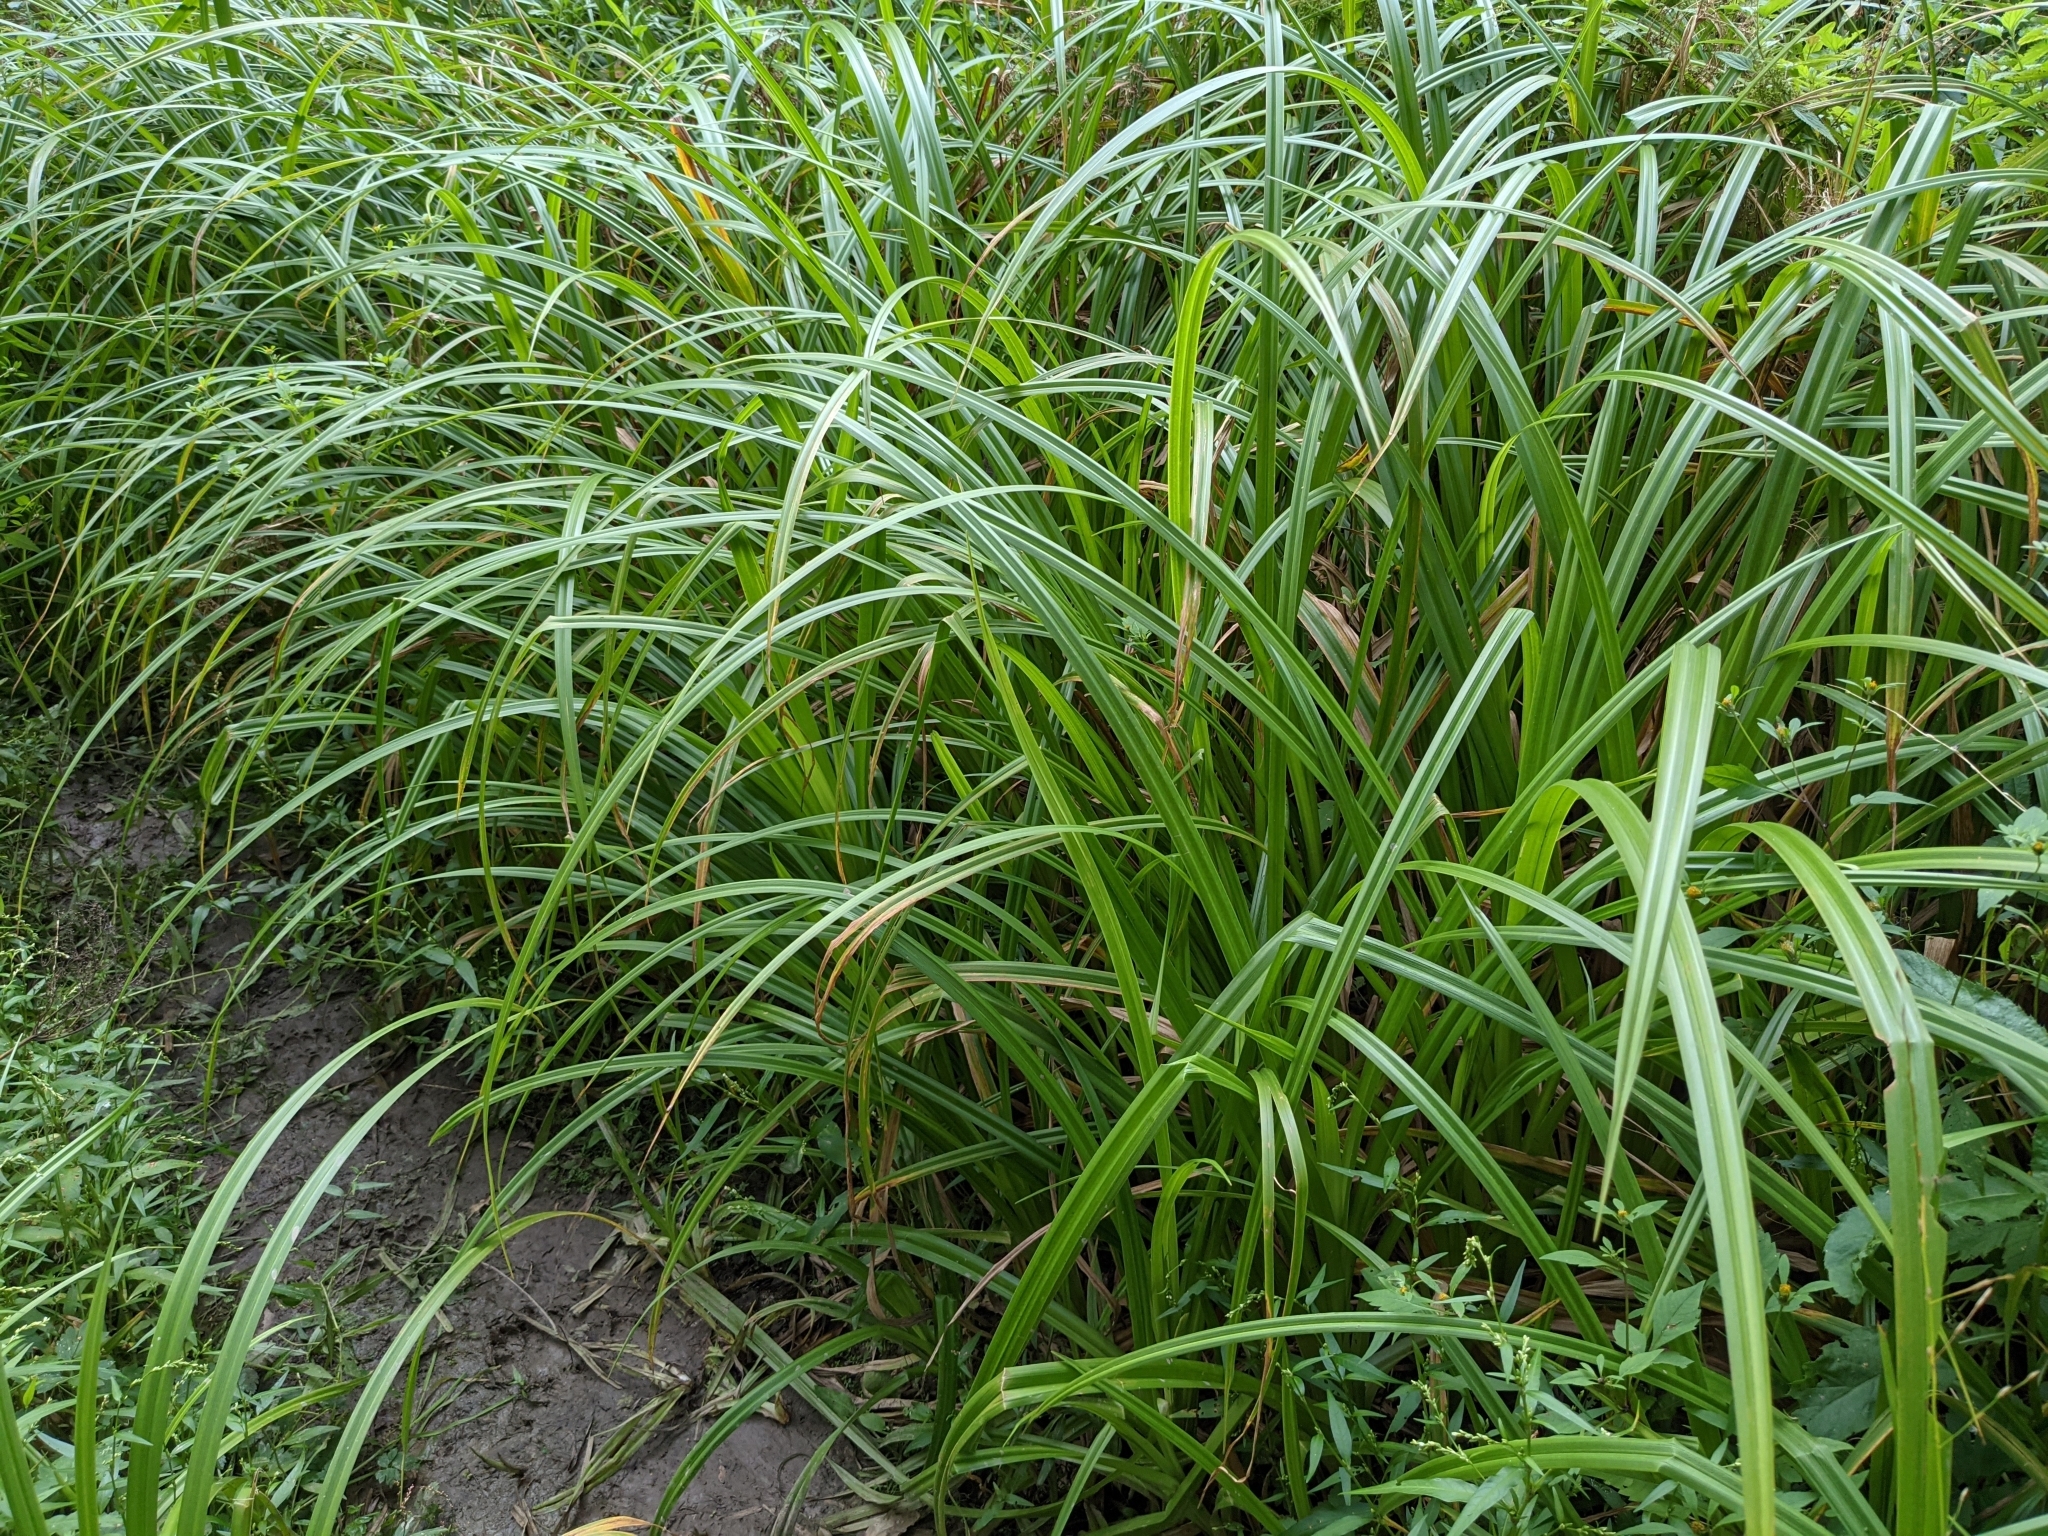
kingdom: Plantae
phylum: Tracheophyta
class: Liliopsida
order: Poales
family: Cyperaceae
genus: Scirpus
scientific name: Scirpus sylvaticus
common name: Wood club-rush
